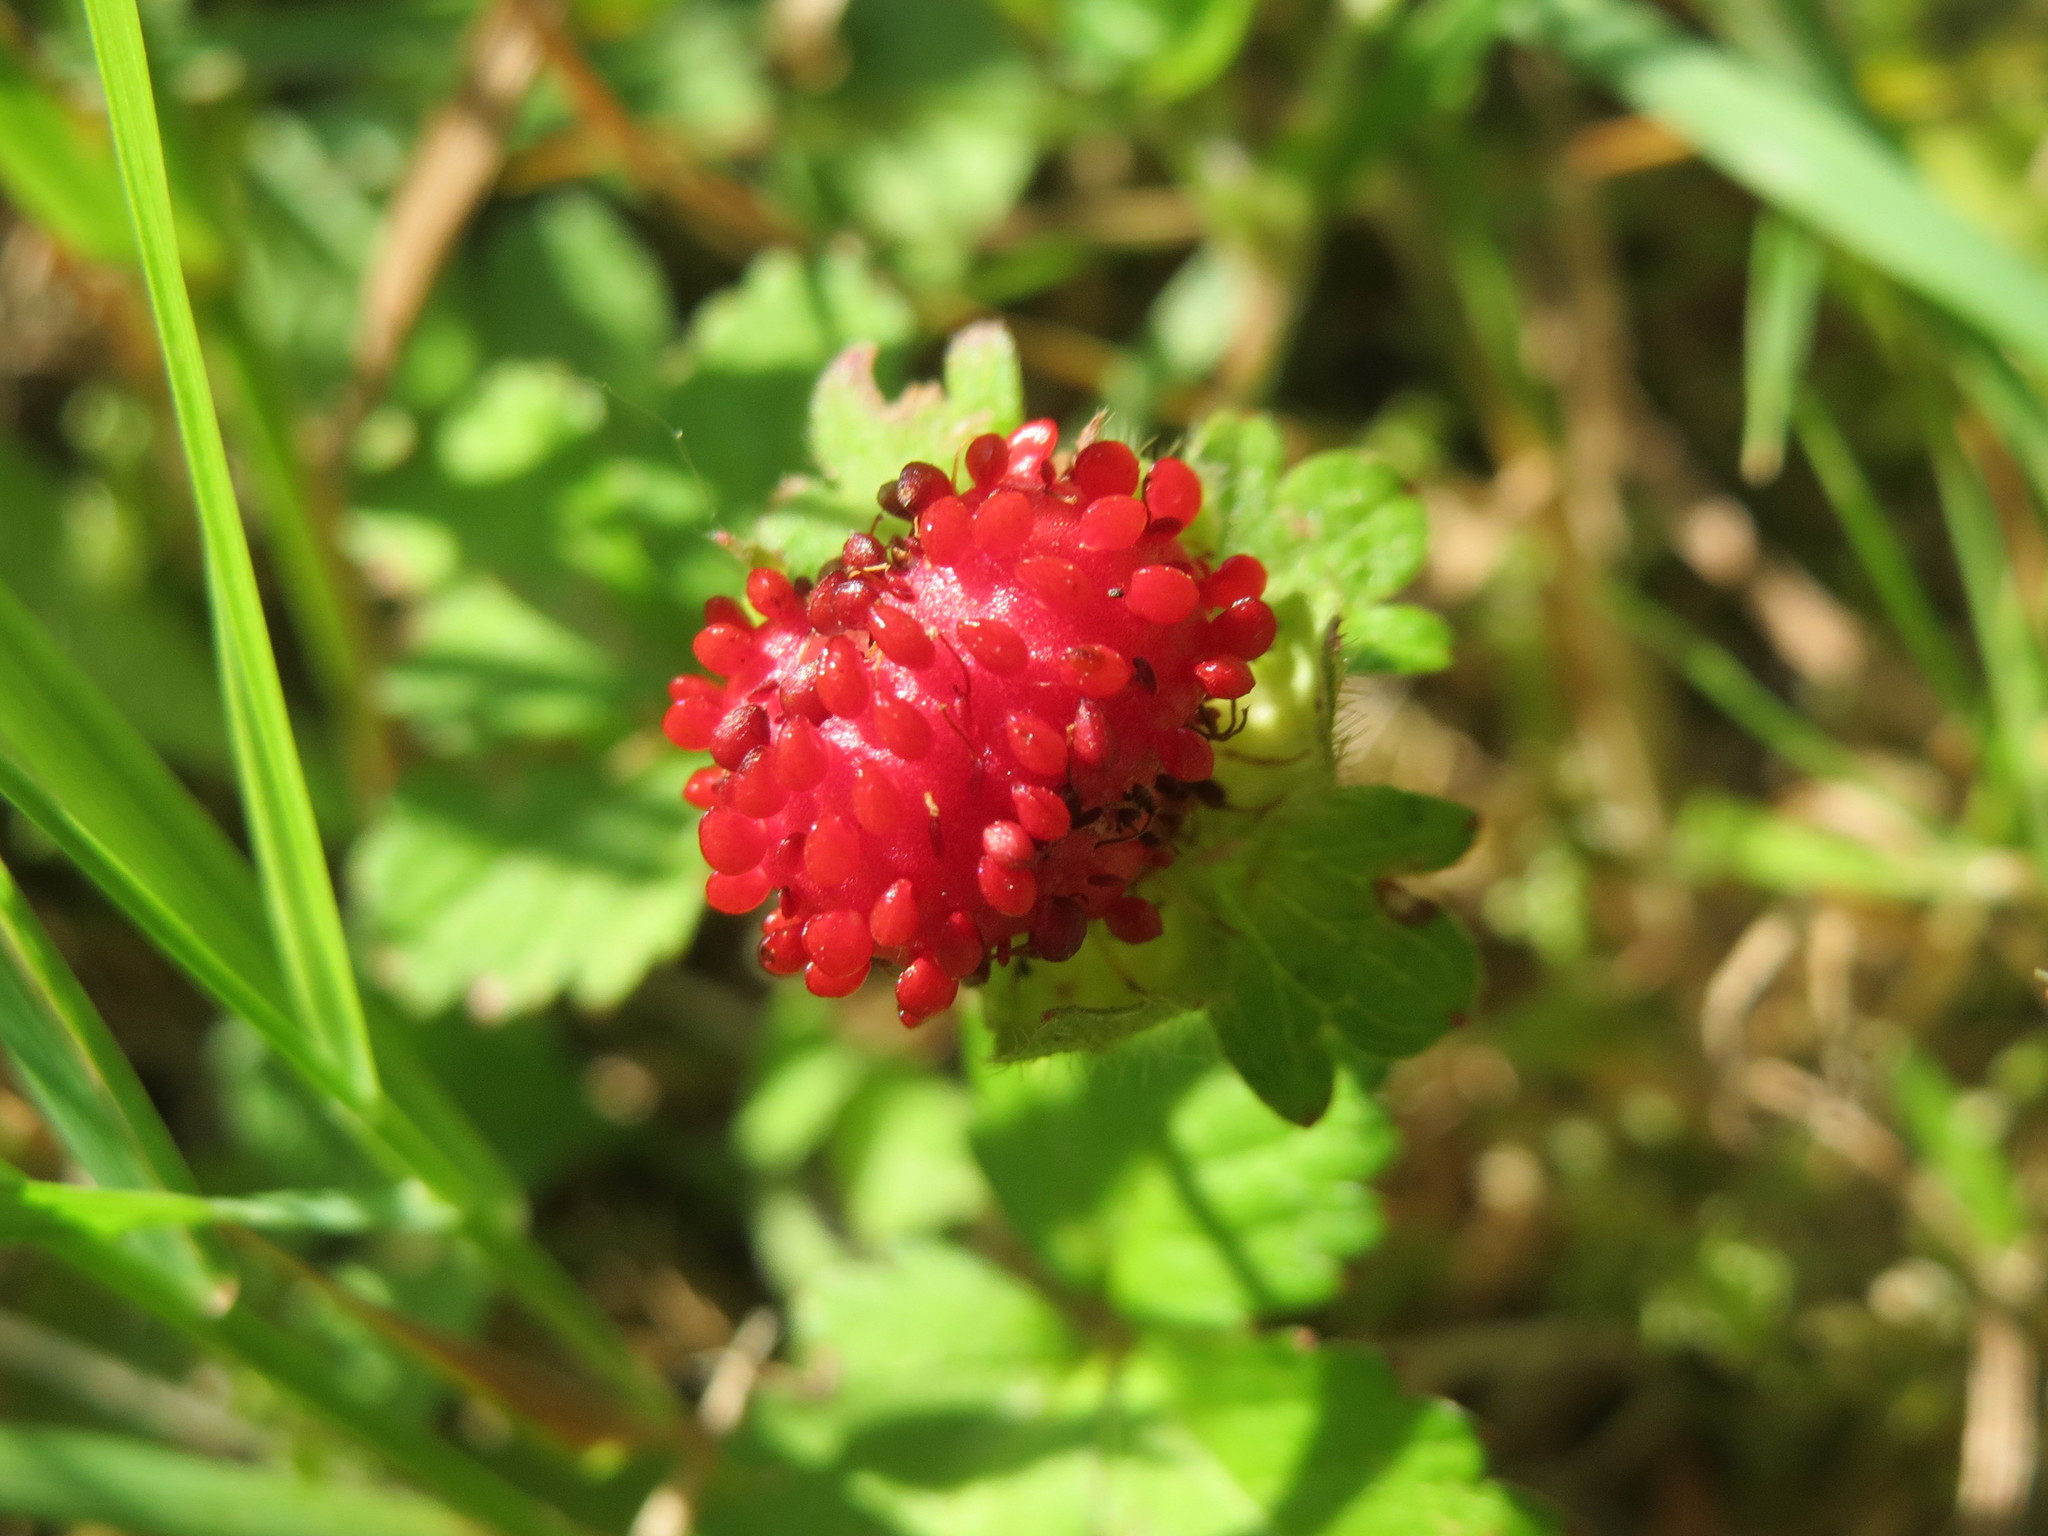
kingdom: Plantae
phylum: Tracheophyta
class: Magnoliopsida
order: Rosales
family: Rosaceae
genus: Potentilla
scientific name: Potentilla indica
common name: Yellow-flowered strawberry
